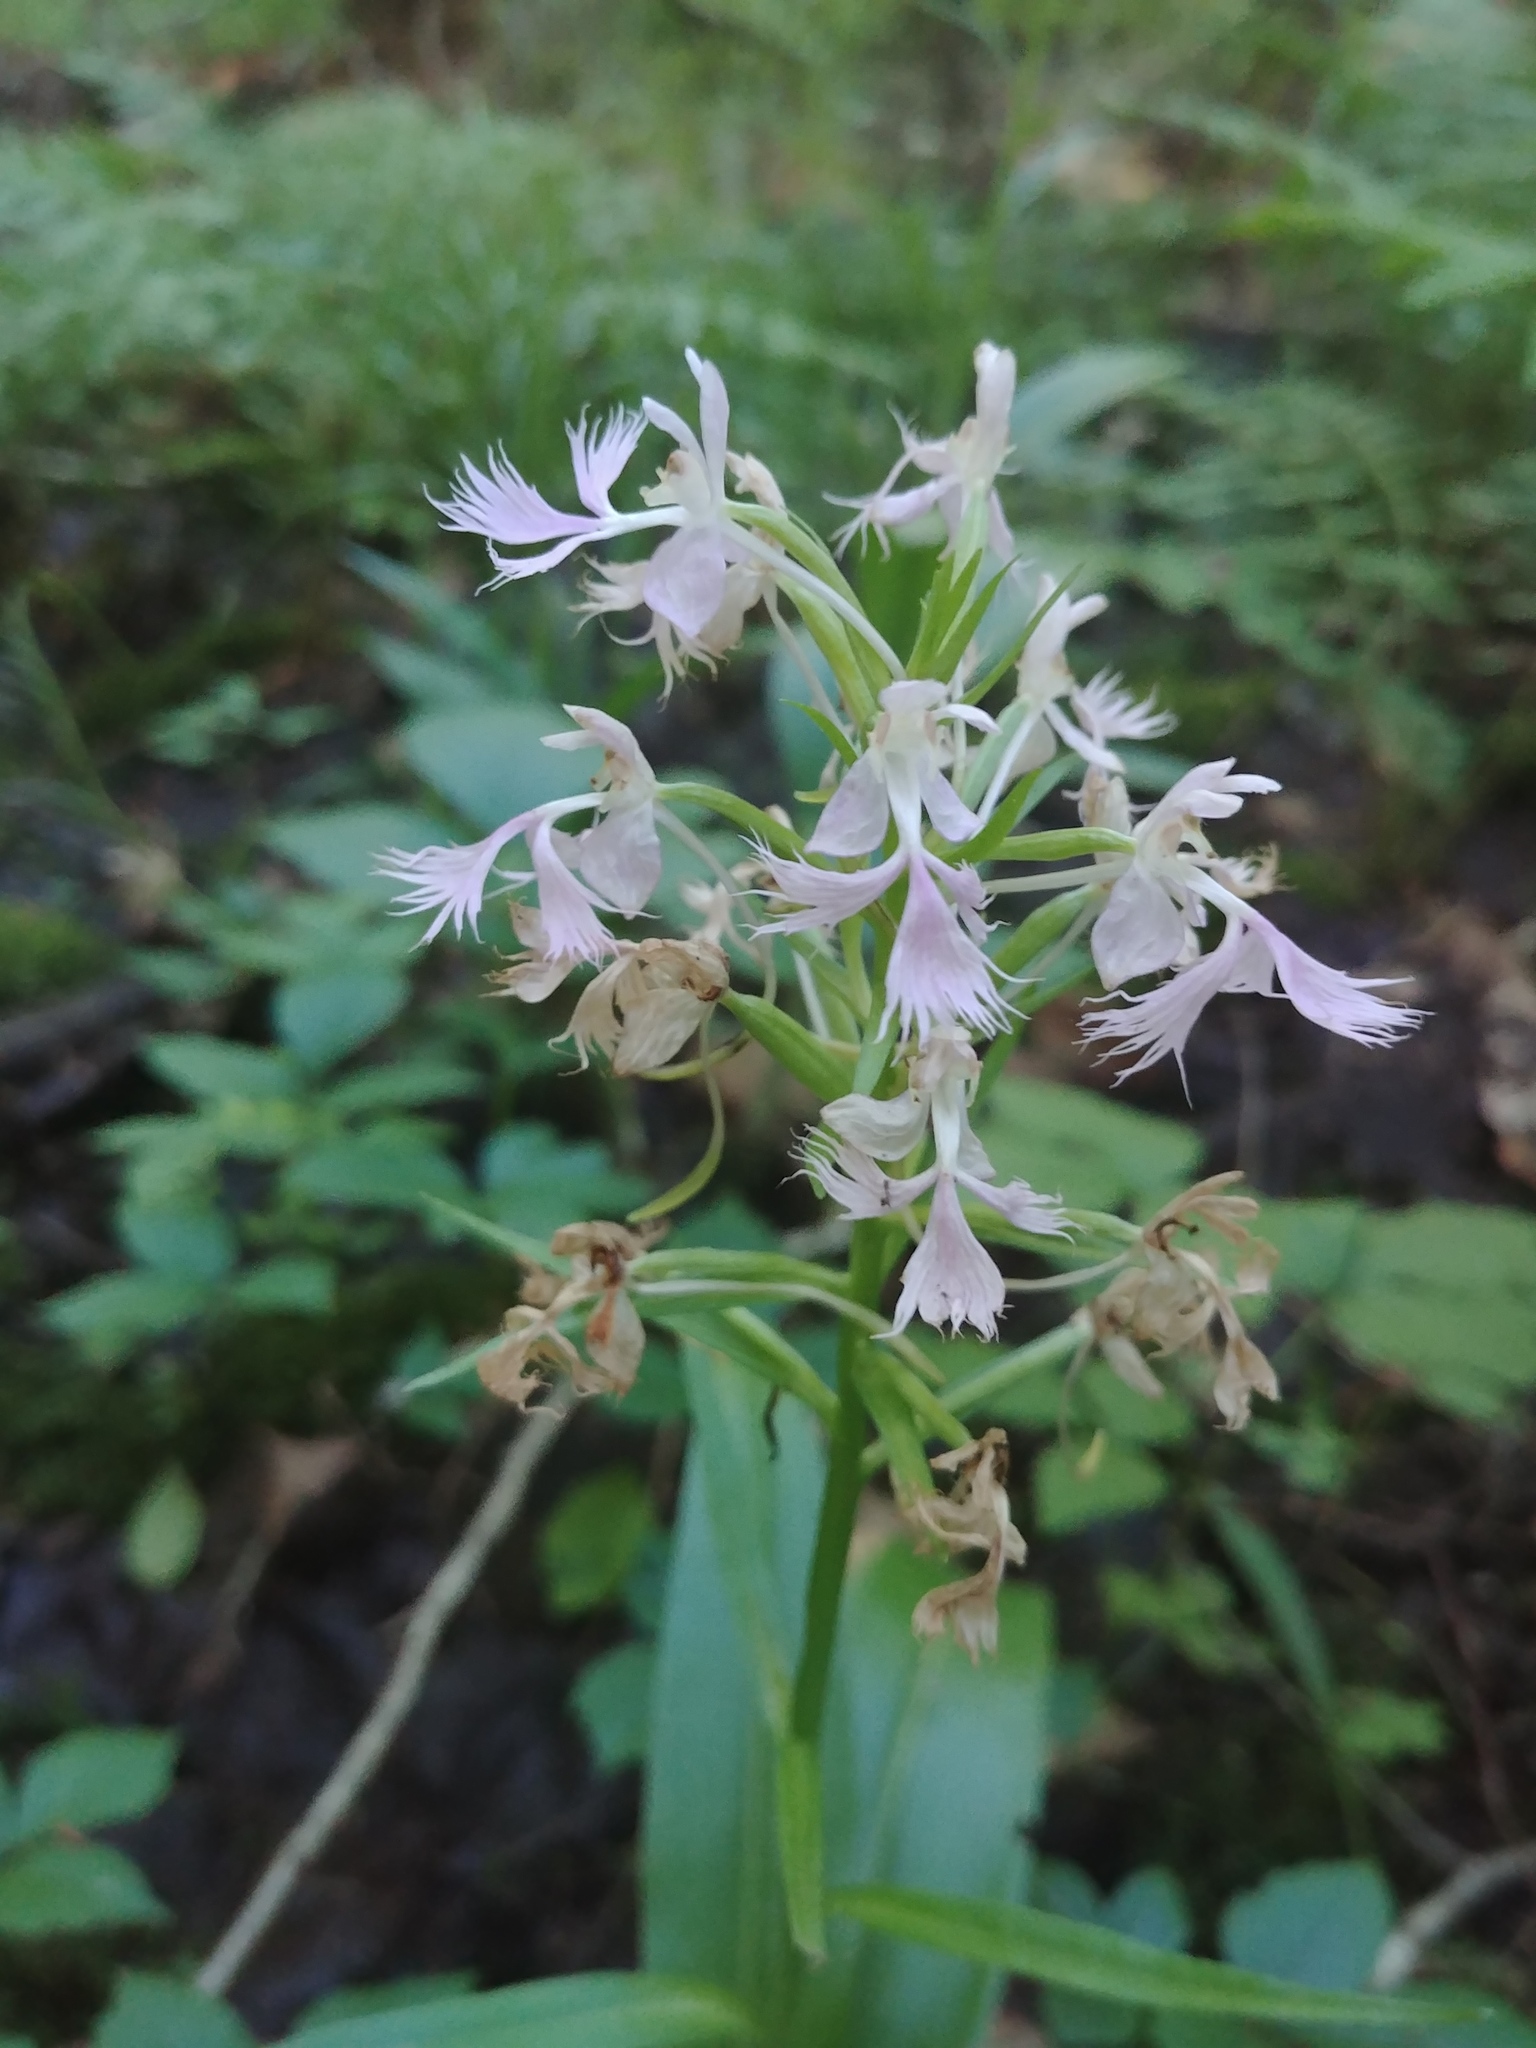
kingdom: Plantae
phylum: Tracheophyta
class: Liliopsida
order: Asparagales
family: Orchidaceae
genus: Platanthera
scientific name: Platanthera grandiflora
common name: Greater purple fringed orchid
